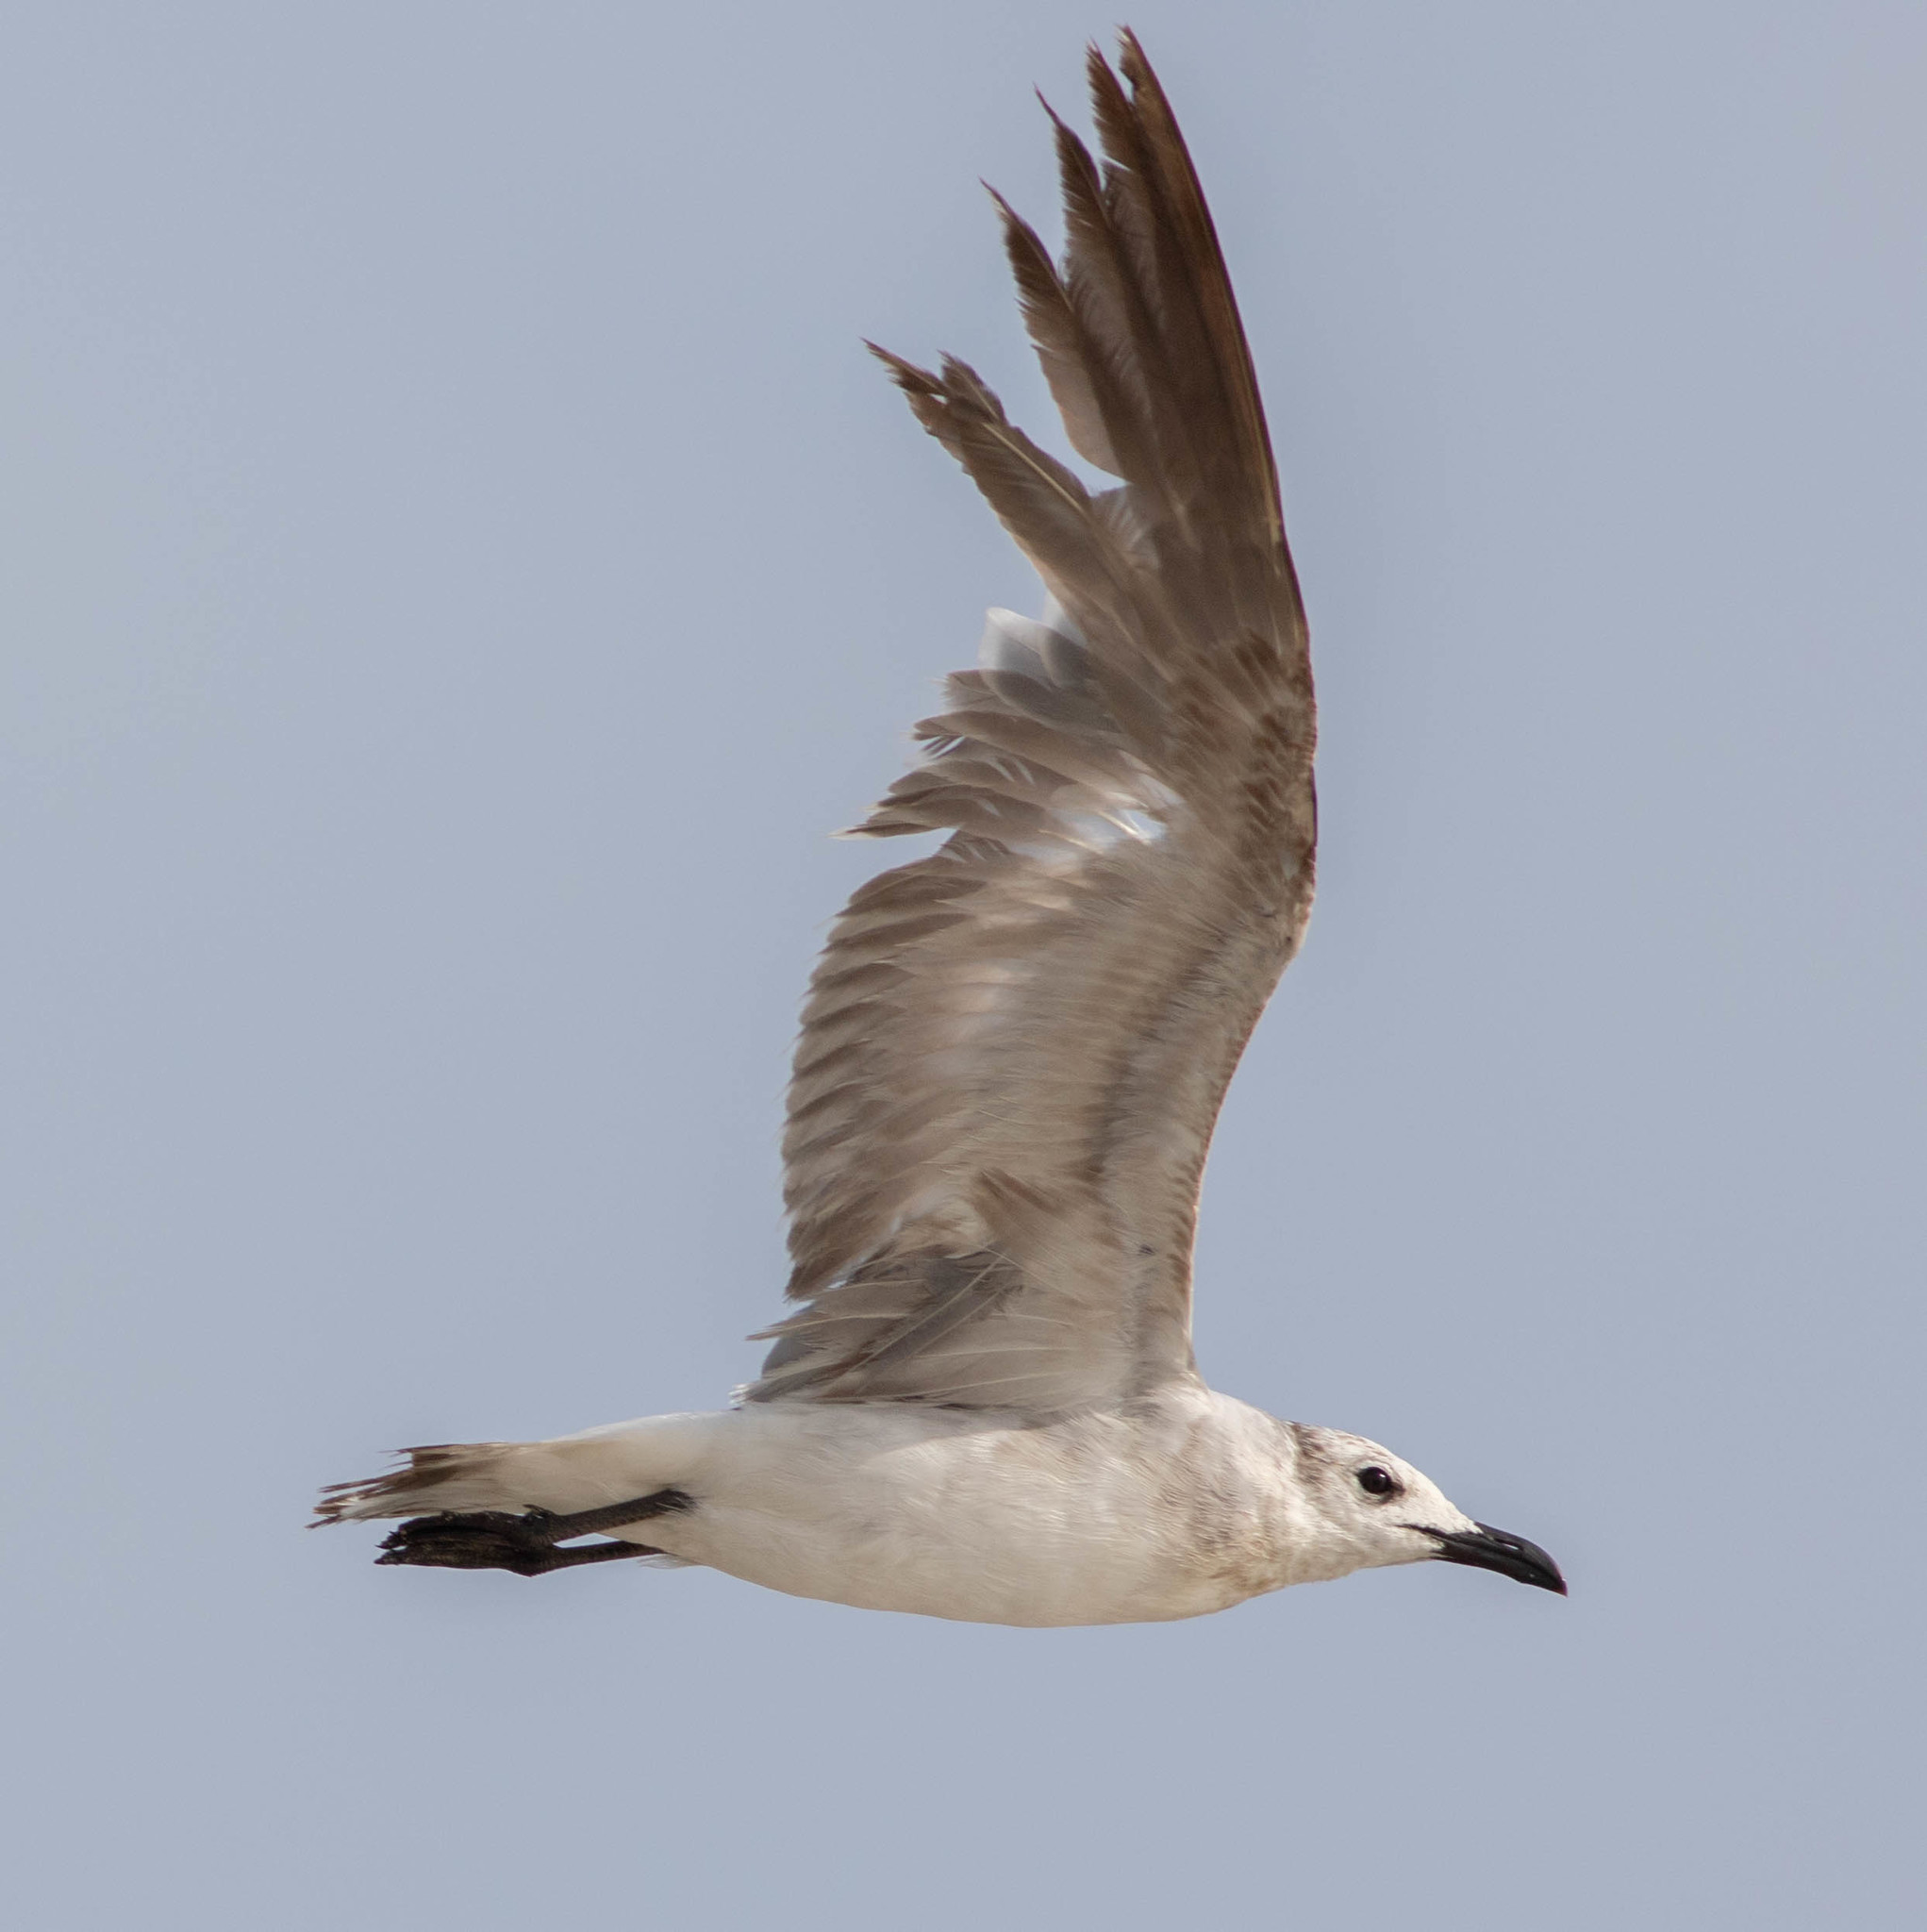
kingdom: Animalia
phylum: Chordata
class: Aves
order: Charadriiformes
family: Laridae
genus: Leucophaeus
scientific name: Leucophaeus atricilla
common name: Laughing gull
